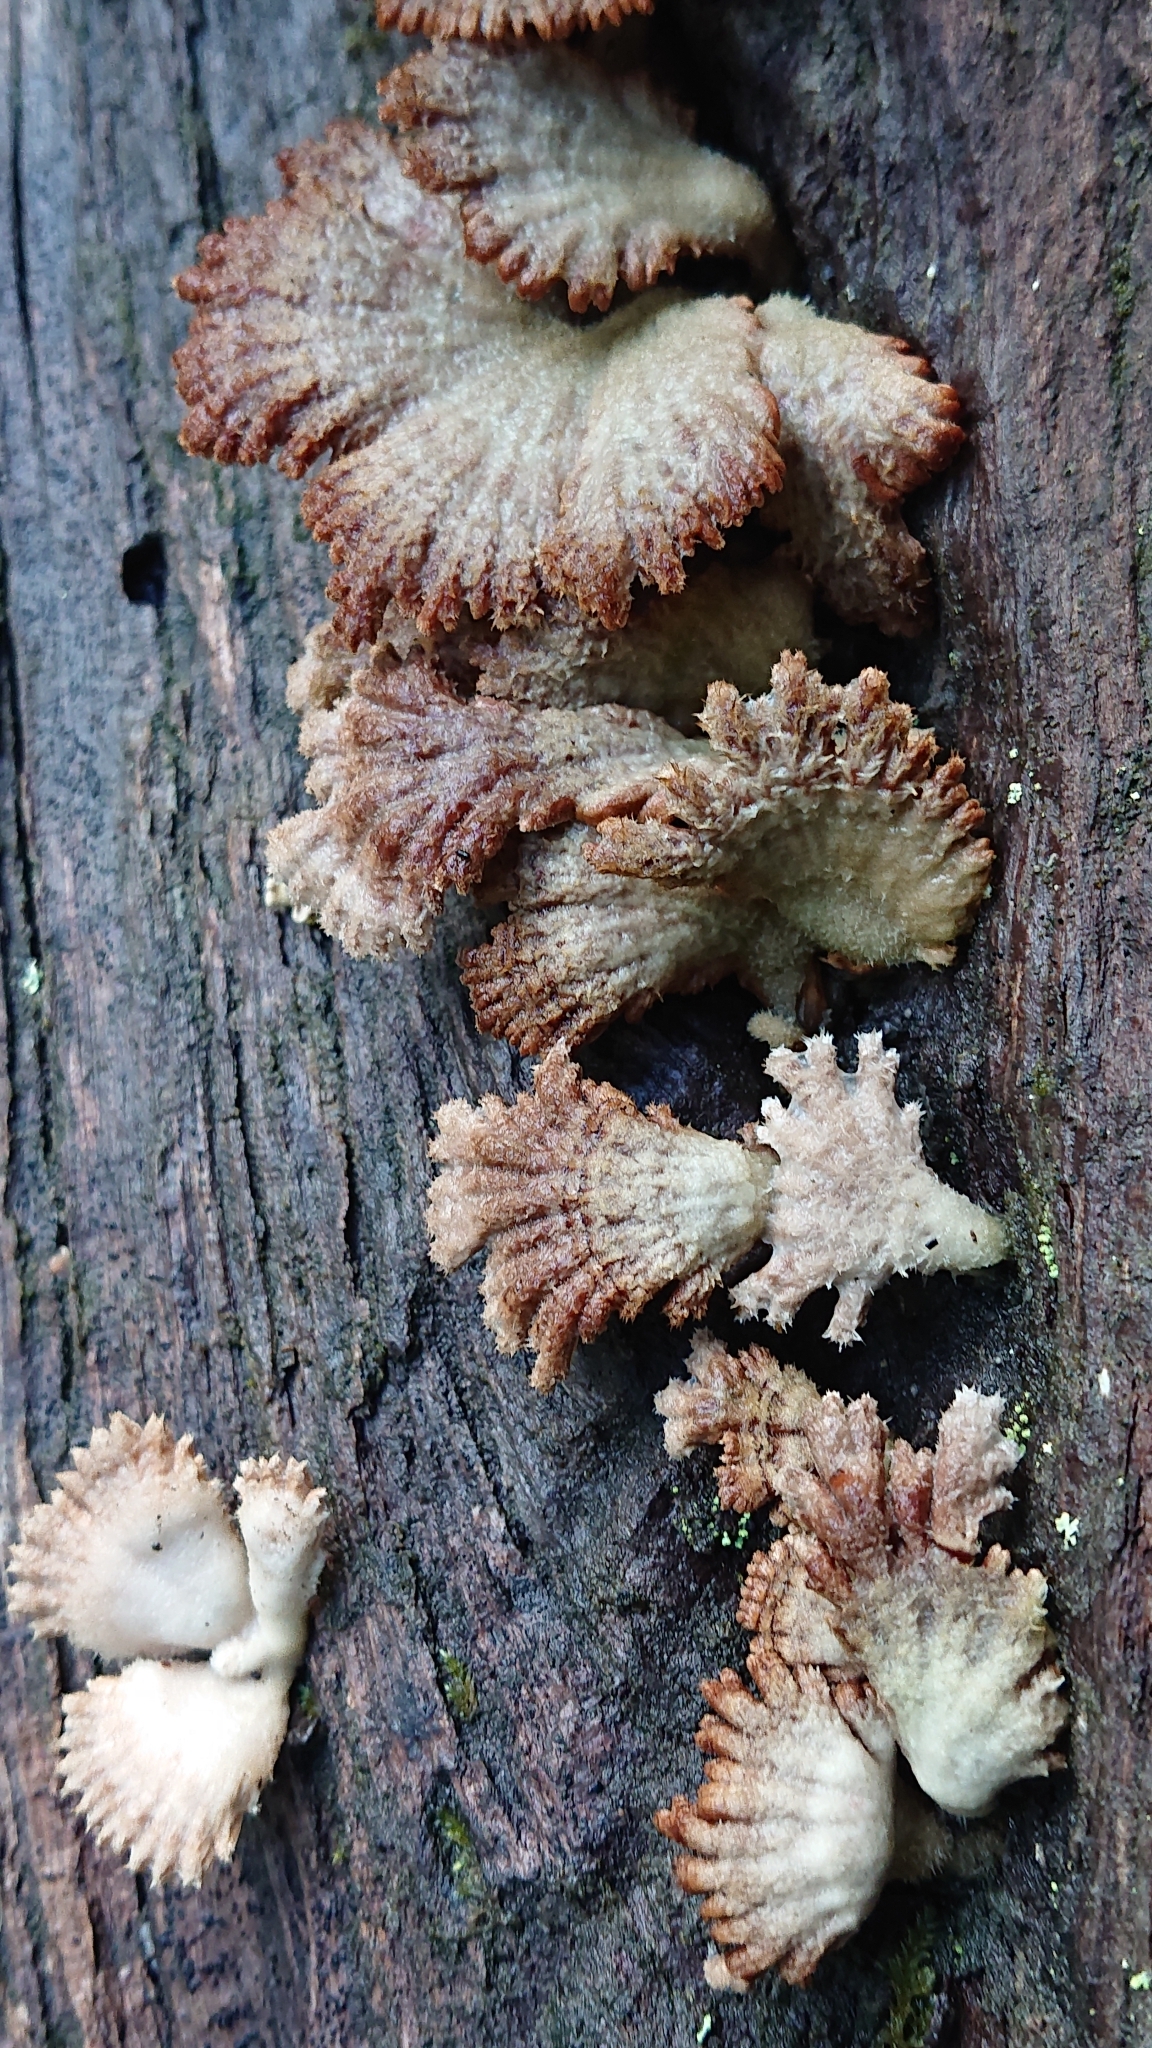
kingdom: Fungi
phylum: Basidiomycota
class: Agaricomycetes
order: Agaricales
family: Schizophyllaceae
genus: Schizophyllum
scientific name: Schizophyllum commune
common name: Common porecrust
